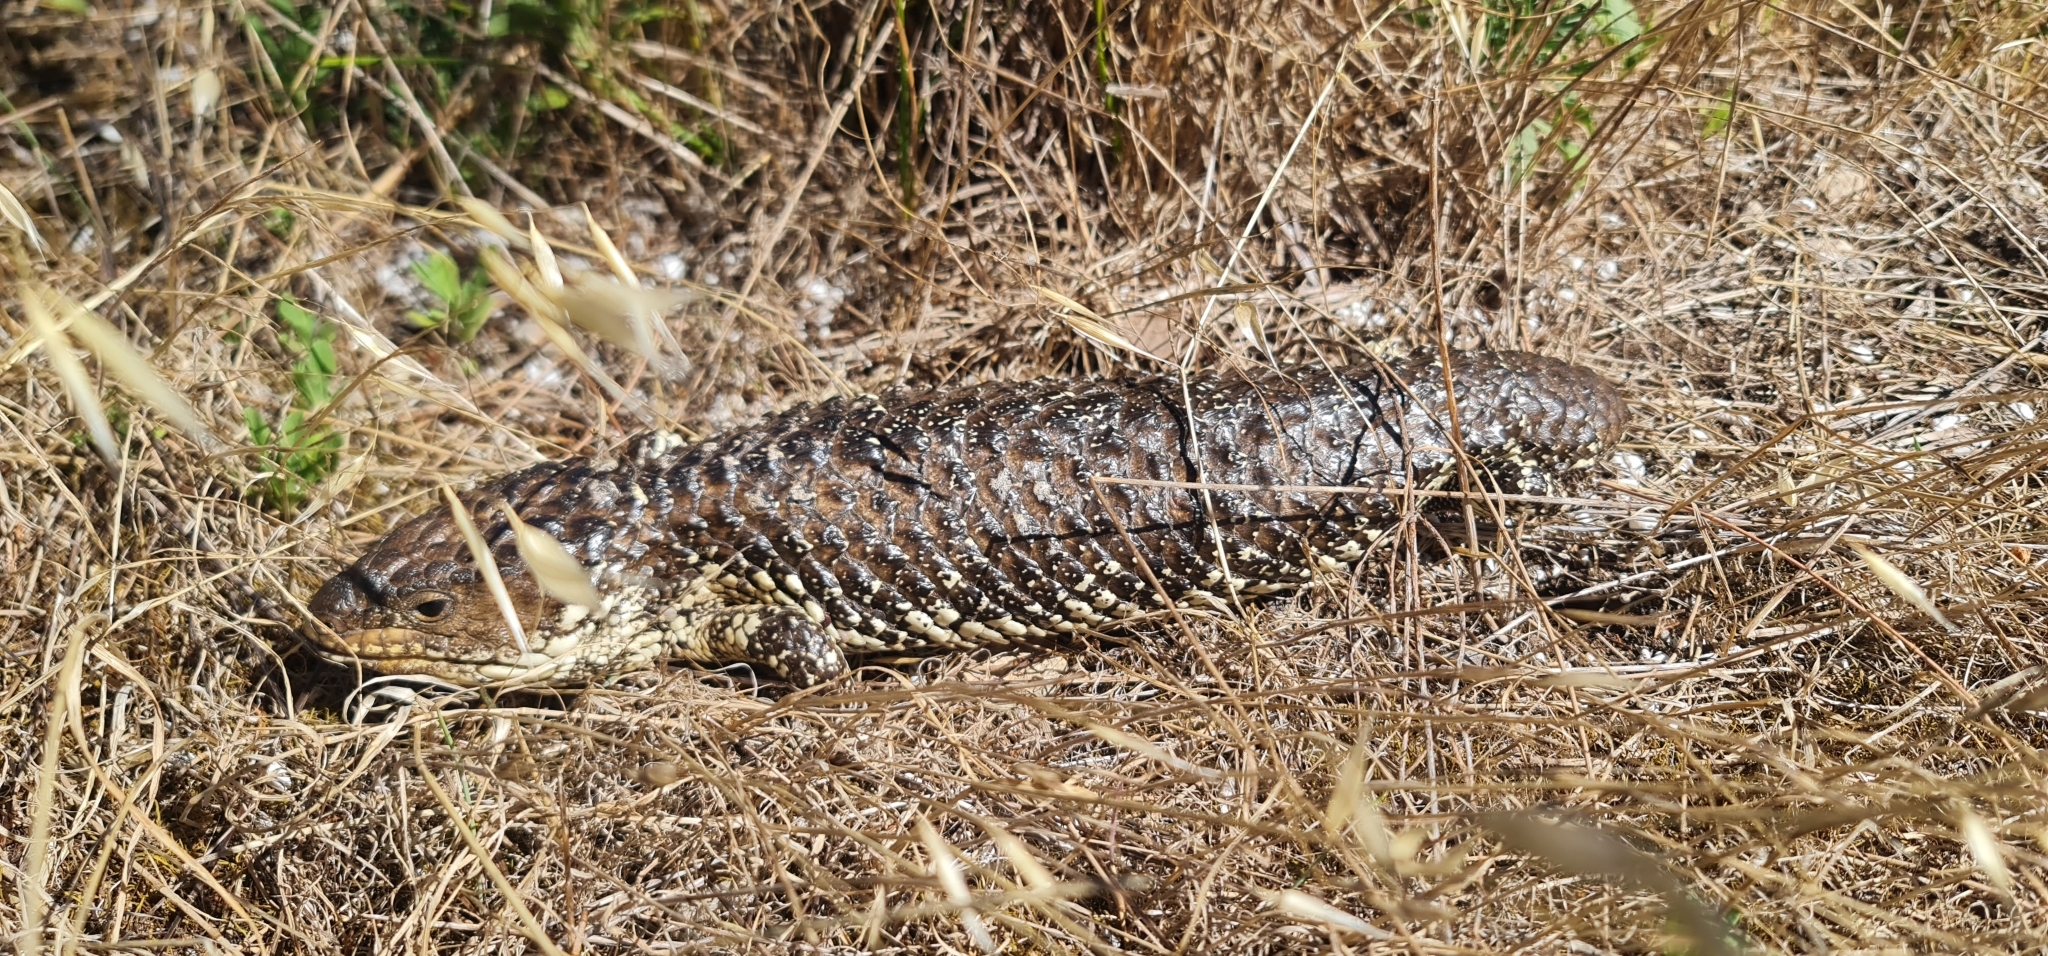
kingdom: Animalia
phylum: Chordata
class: Squamata
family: Scincidae
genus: Tiliqua
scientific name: Tiliqua rugosa
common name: Pinecone lizard
